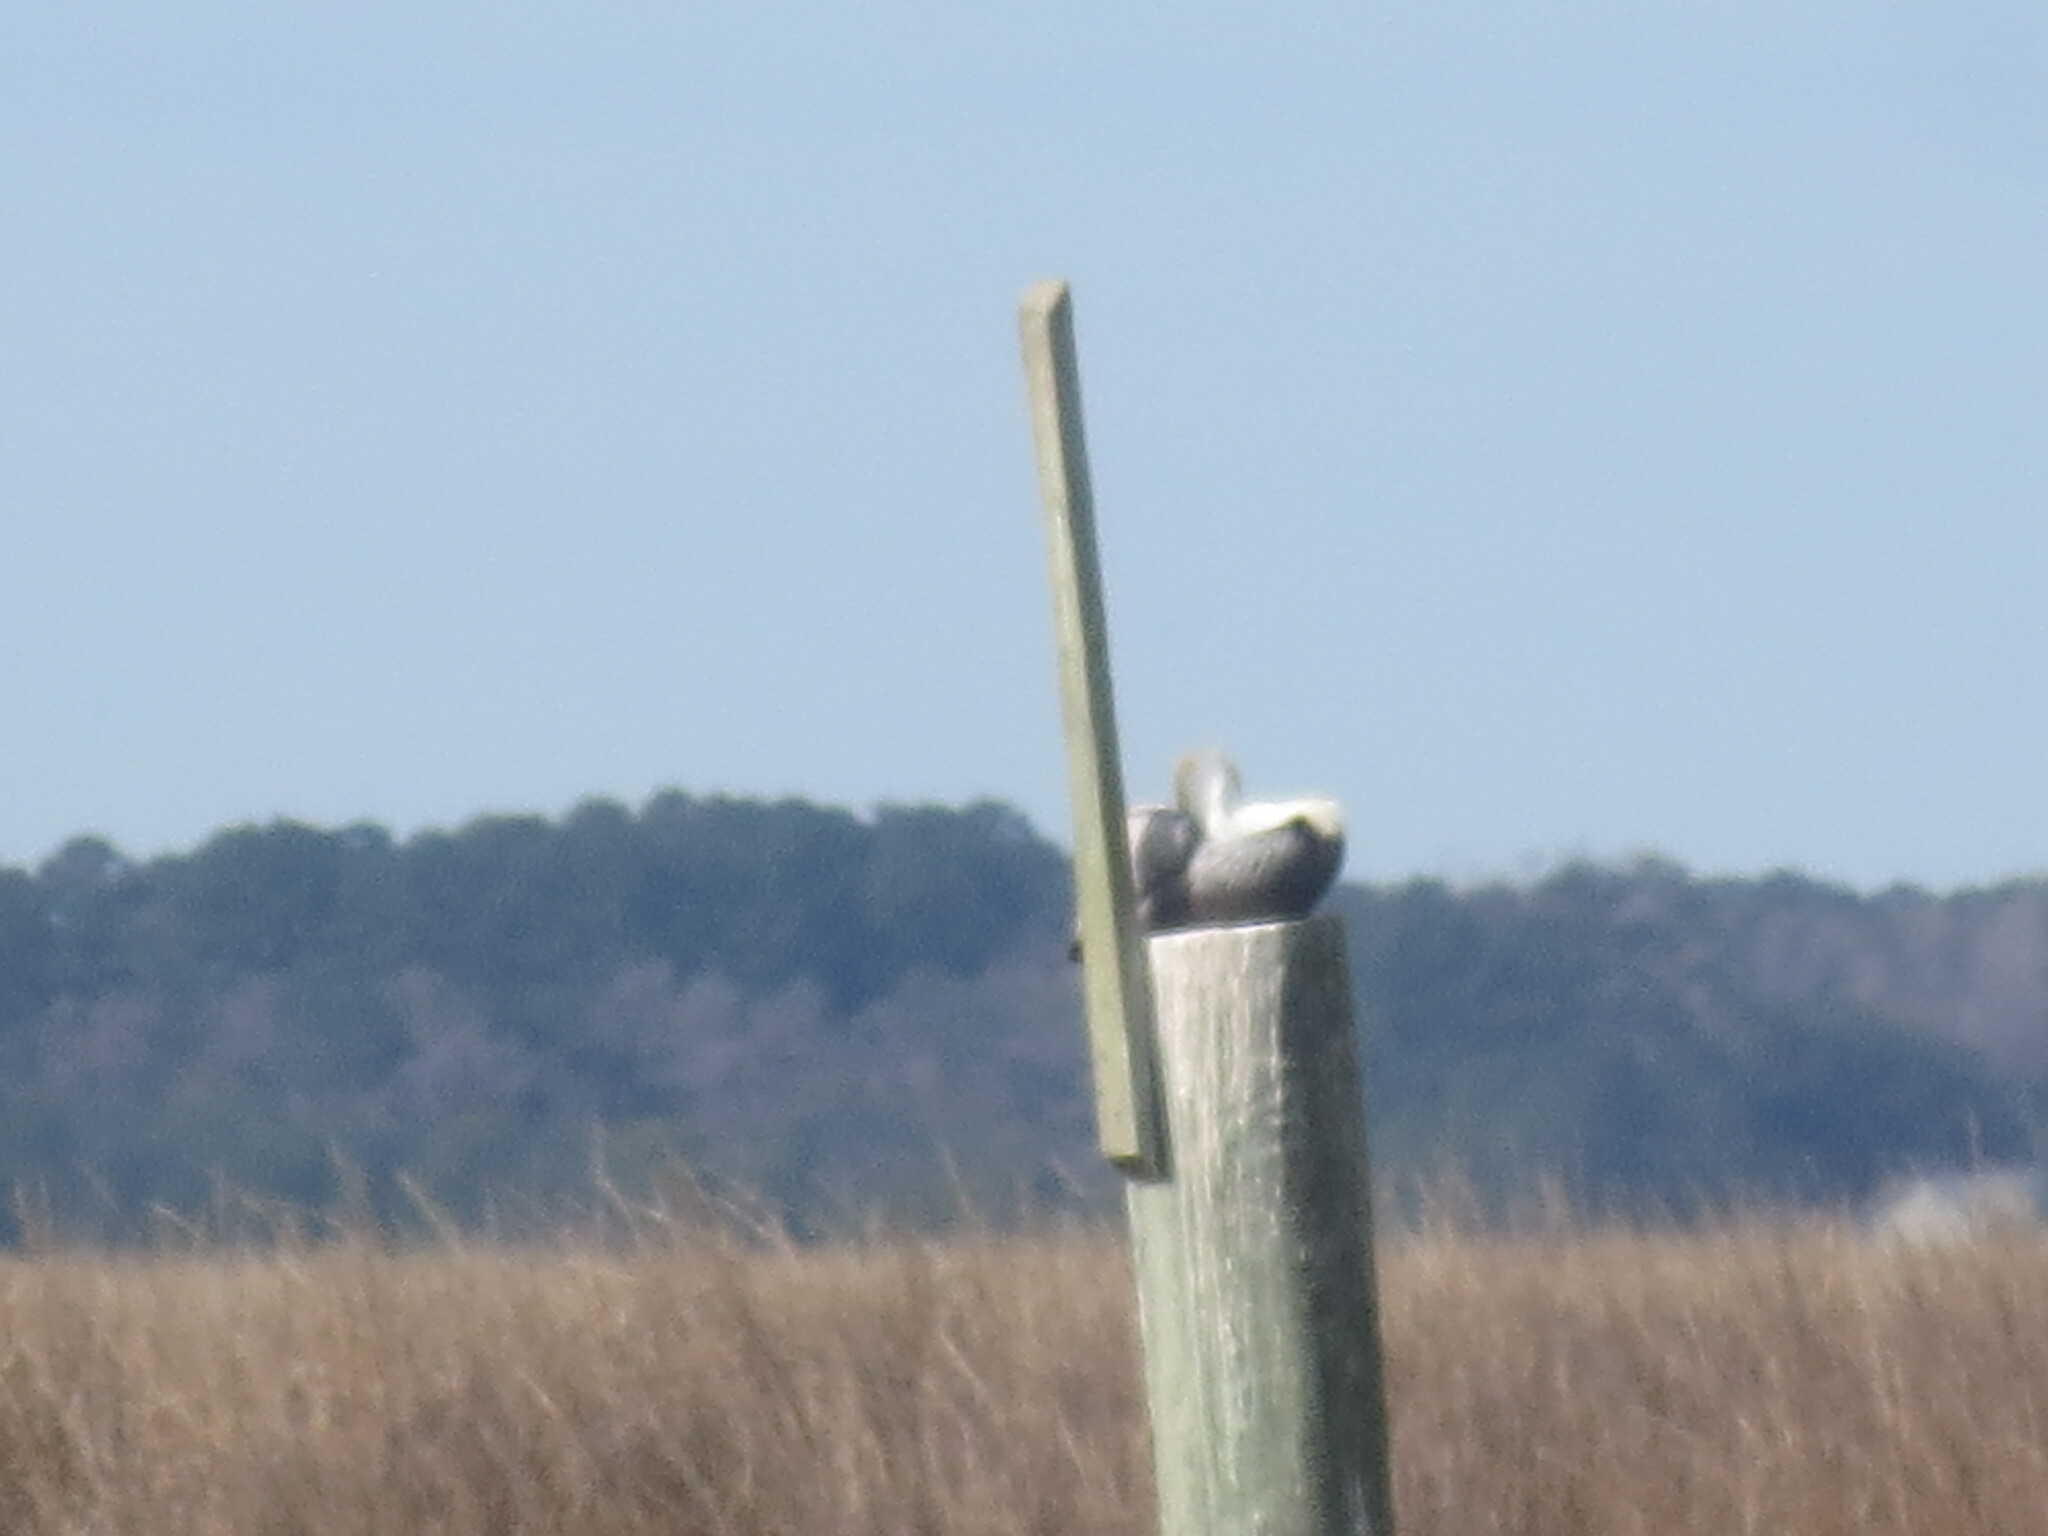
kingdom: Animalia
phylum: Chordata
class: Aves
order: Pelecaniformes
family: Pelecanidae
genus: Pelecanus
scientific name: Pelecanus occidentalis
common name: Brown pelican
